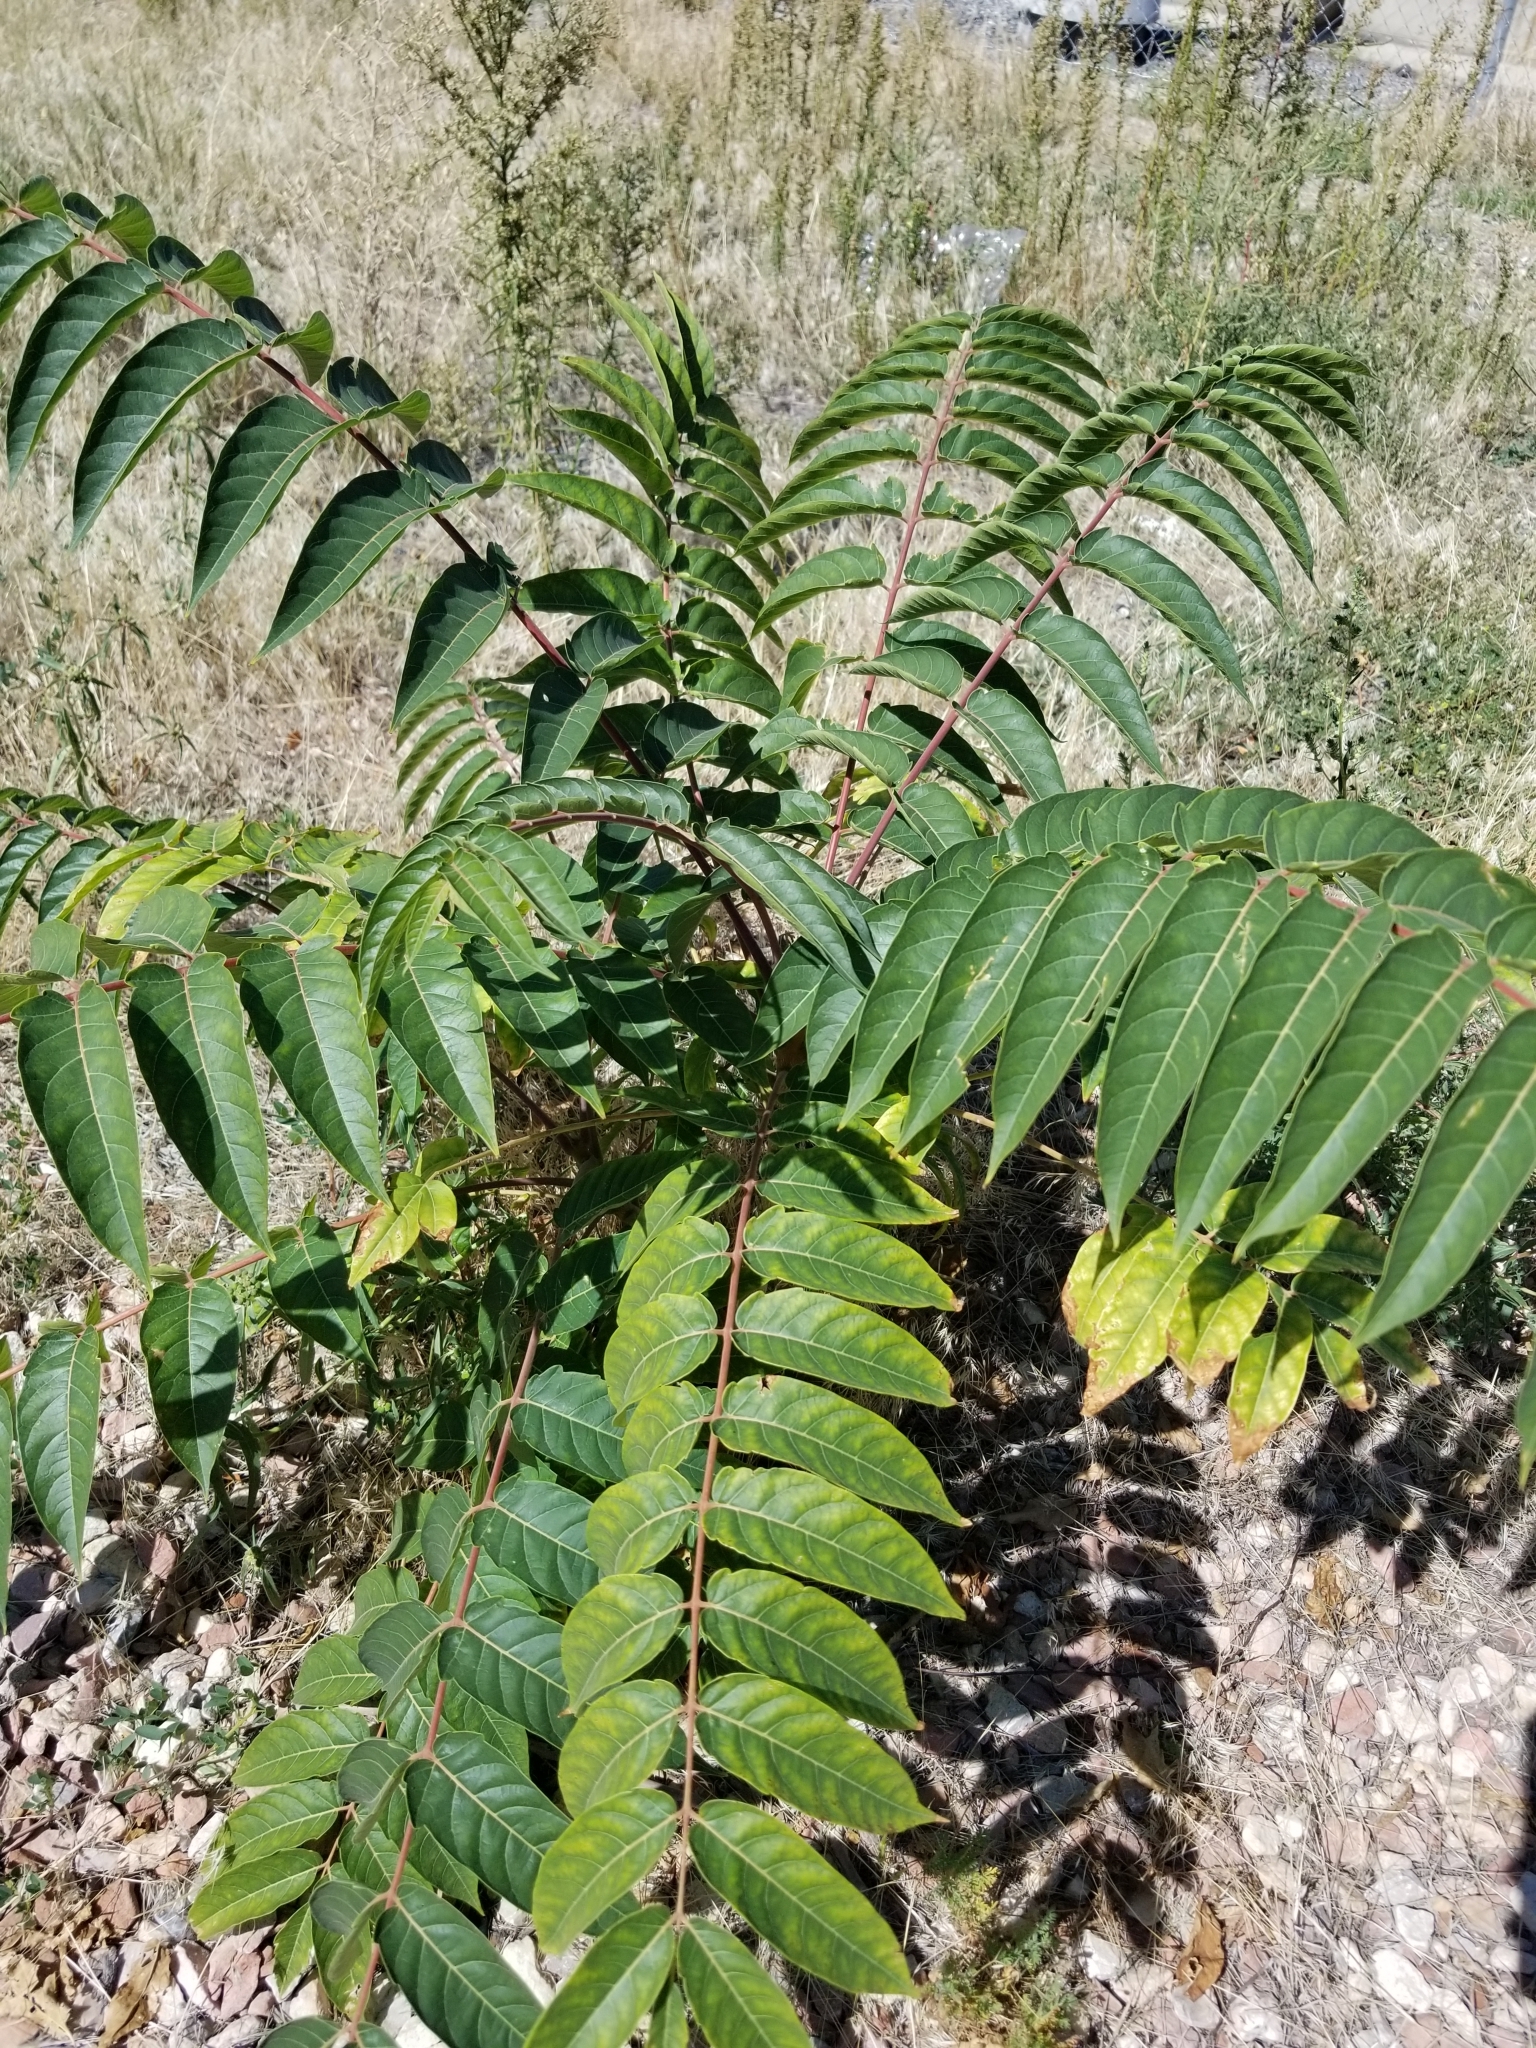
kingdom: Plantae
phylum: Tracheophyta
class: Magnoliopsida
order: Sapindales
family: Simaroubaceae
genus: Ailanthus
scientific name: Ailanthus altissima
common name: Tree-of-heaven
